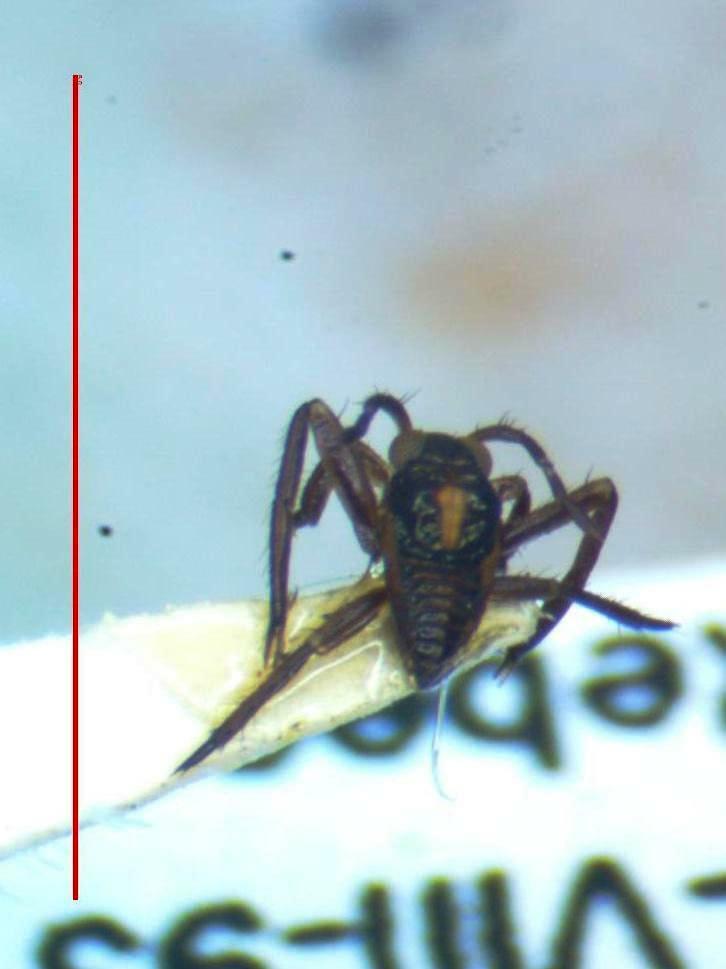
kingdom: Animalia
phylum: Arthropoda
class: Insecta
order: Hemiptera
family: Veliidae
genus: Rhagovelia
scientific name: Rhagovelia
